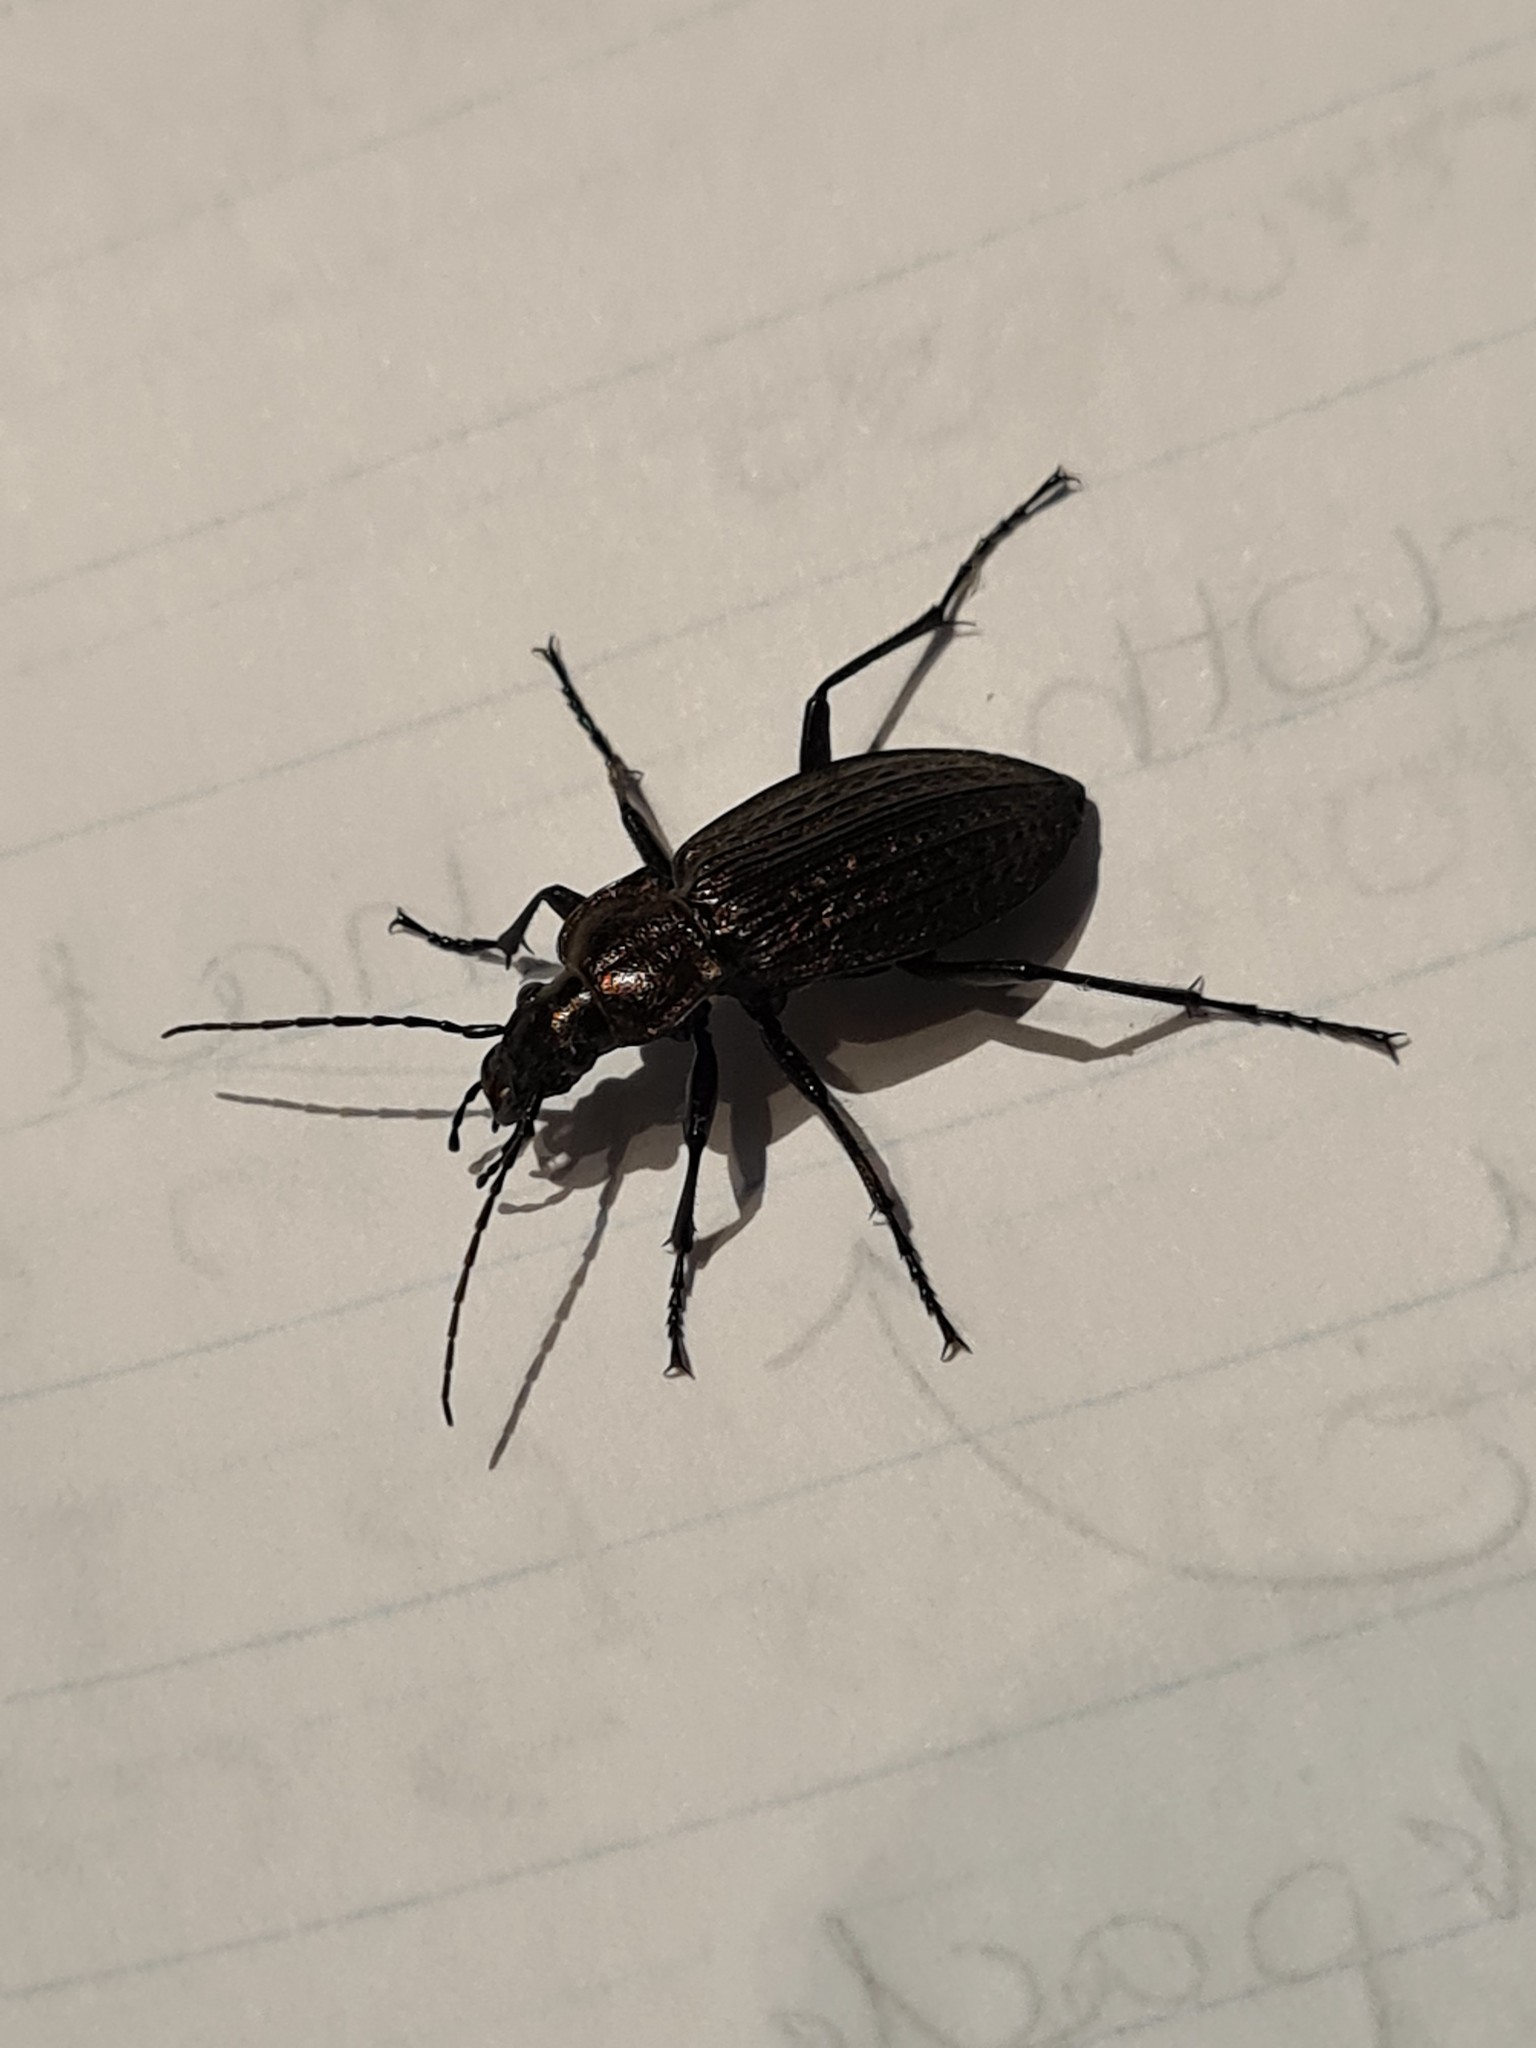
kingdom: Animalia
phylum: Arthropoda
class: Insecta
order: Coleoptera
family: Carabidae
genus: Carabus
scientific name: Carabus granulatus
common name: Granulate ground beetle
